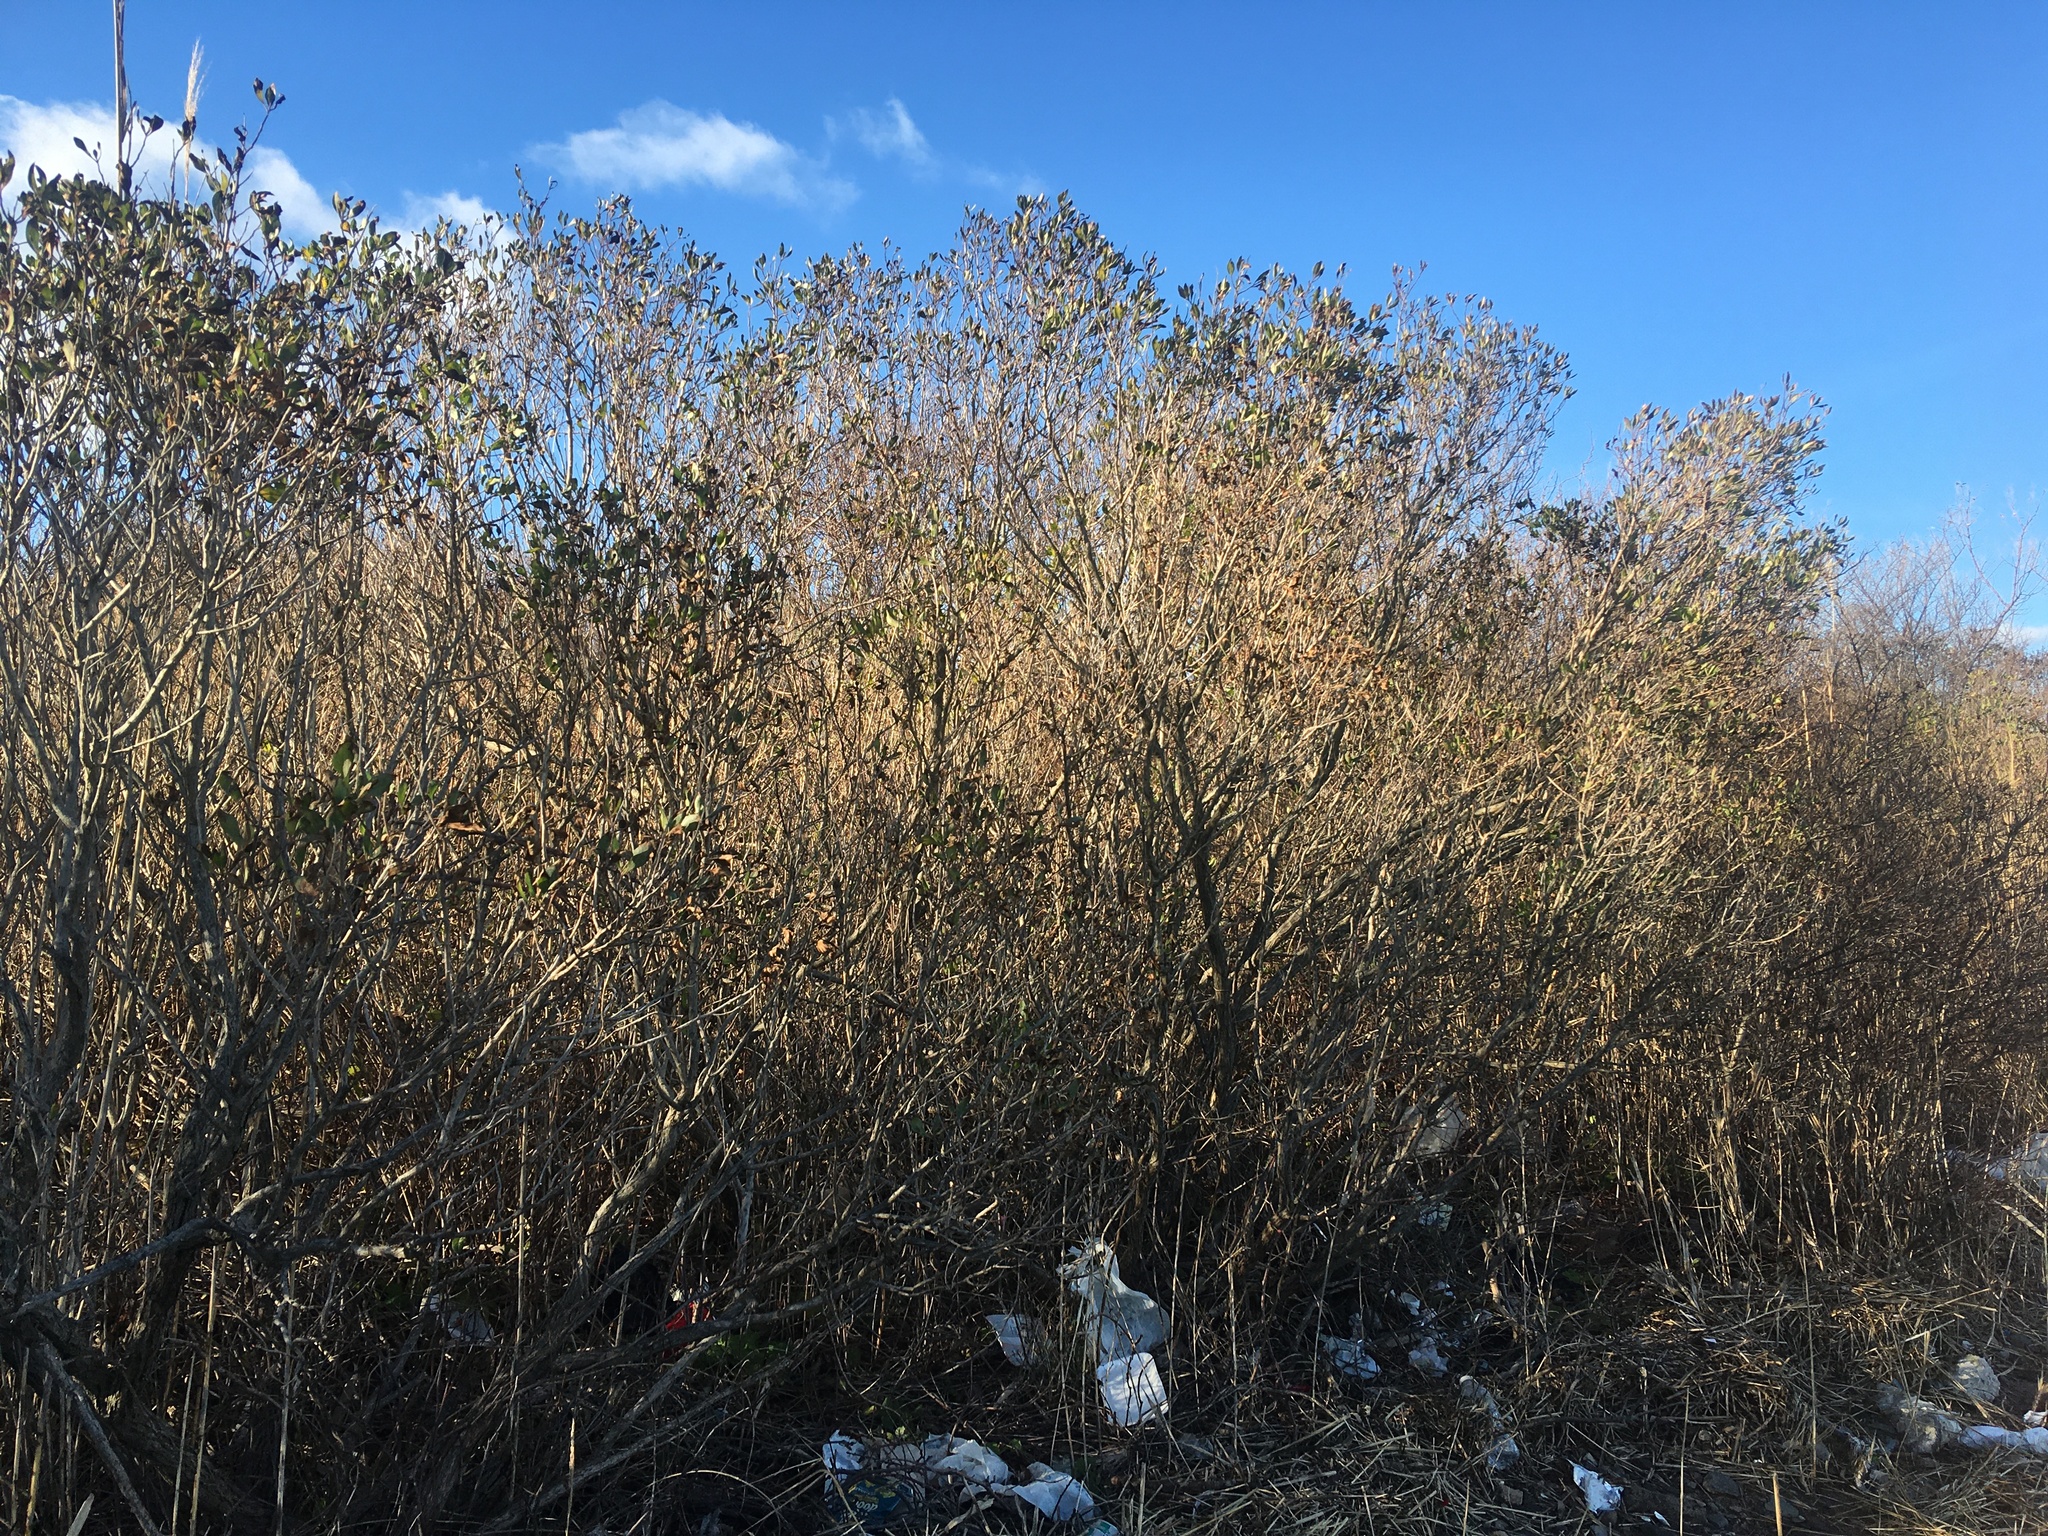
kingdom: Plantae
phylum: Tracheophyta
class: Magnoliopsida
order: Asterales
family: Asteraceae
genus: Baccharis
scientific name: Baccharis halimifolia
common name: Eastern baccharis
